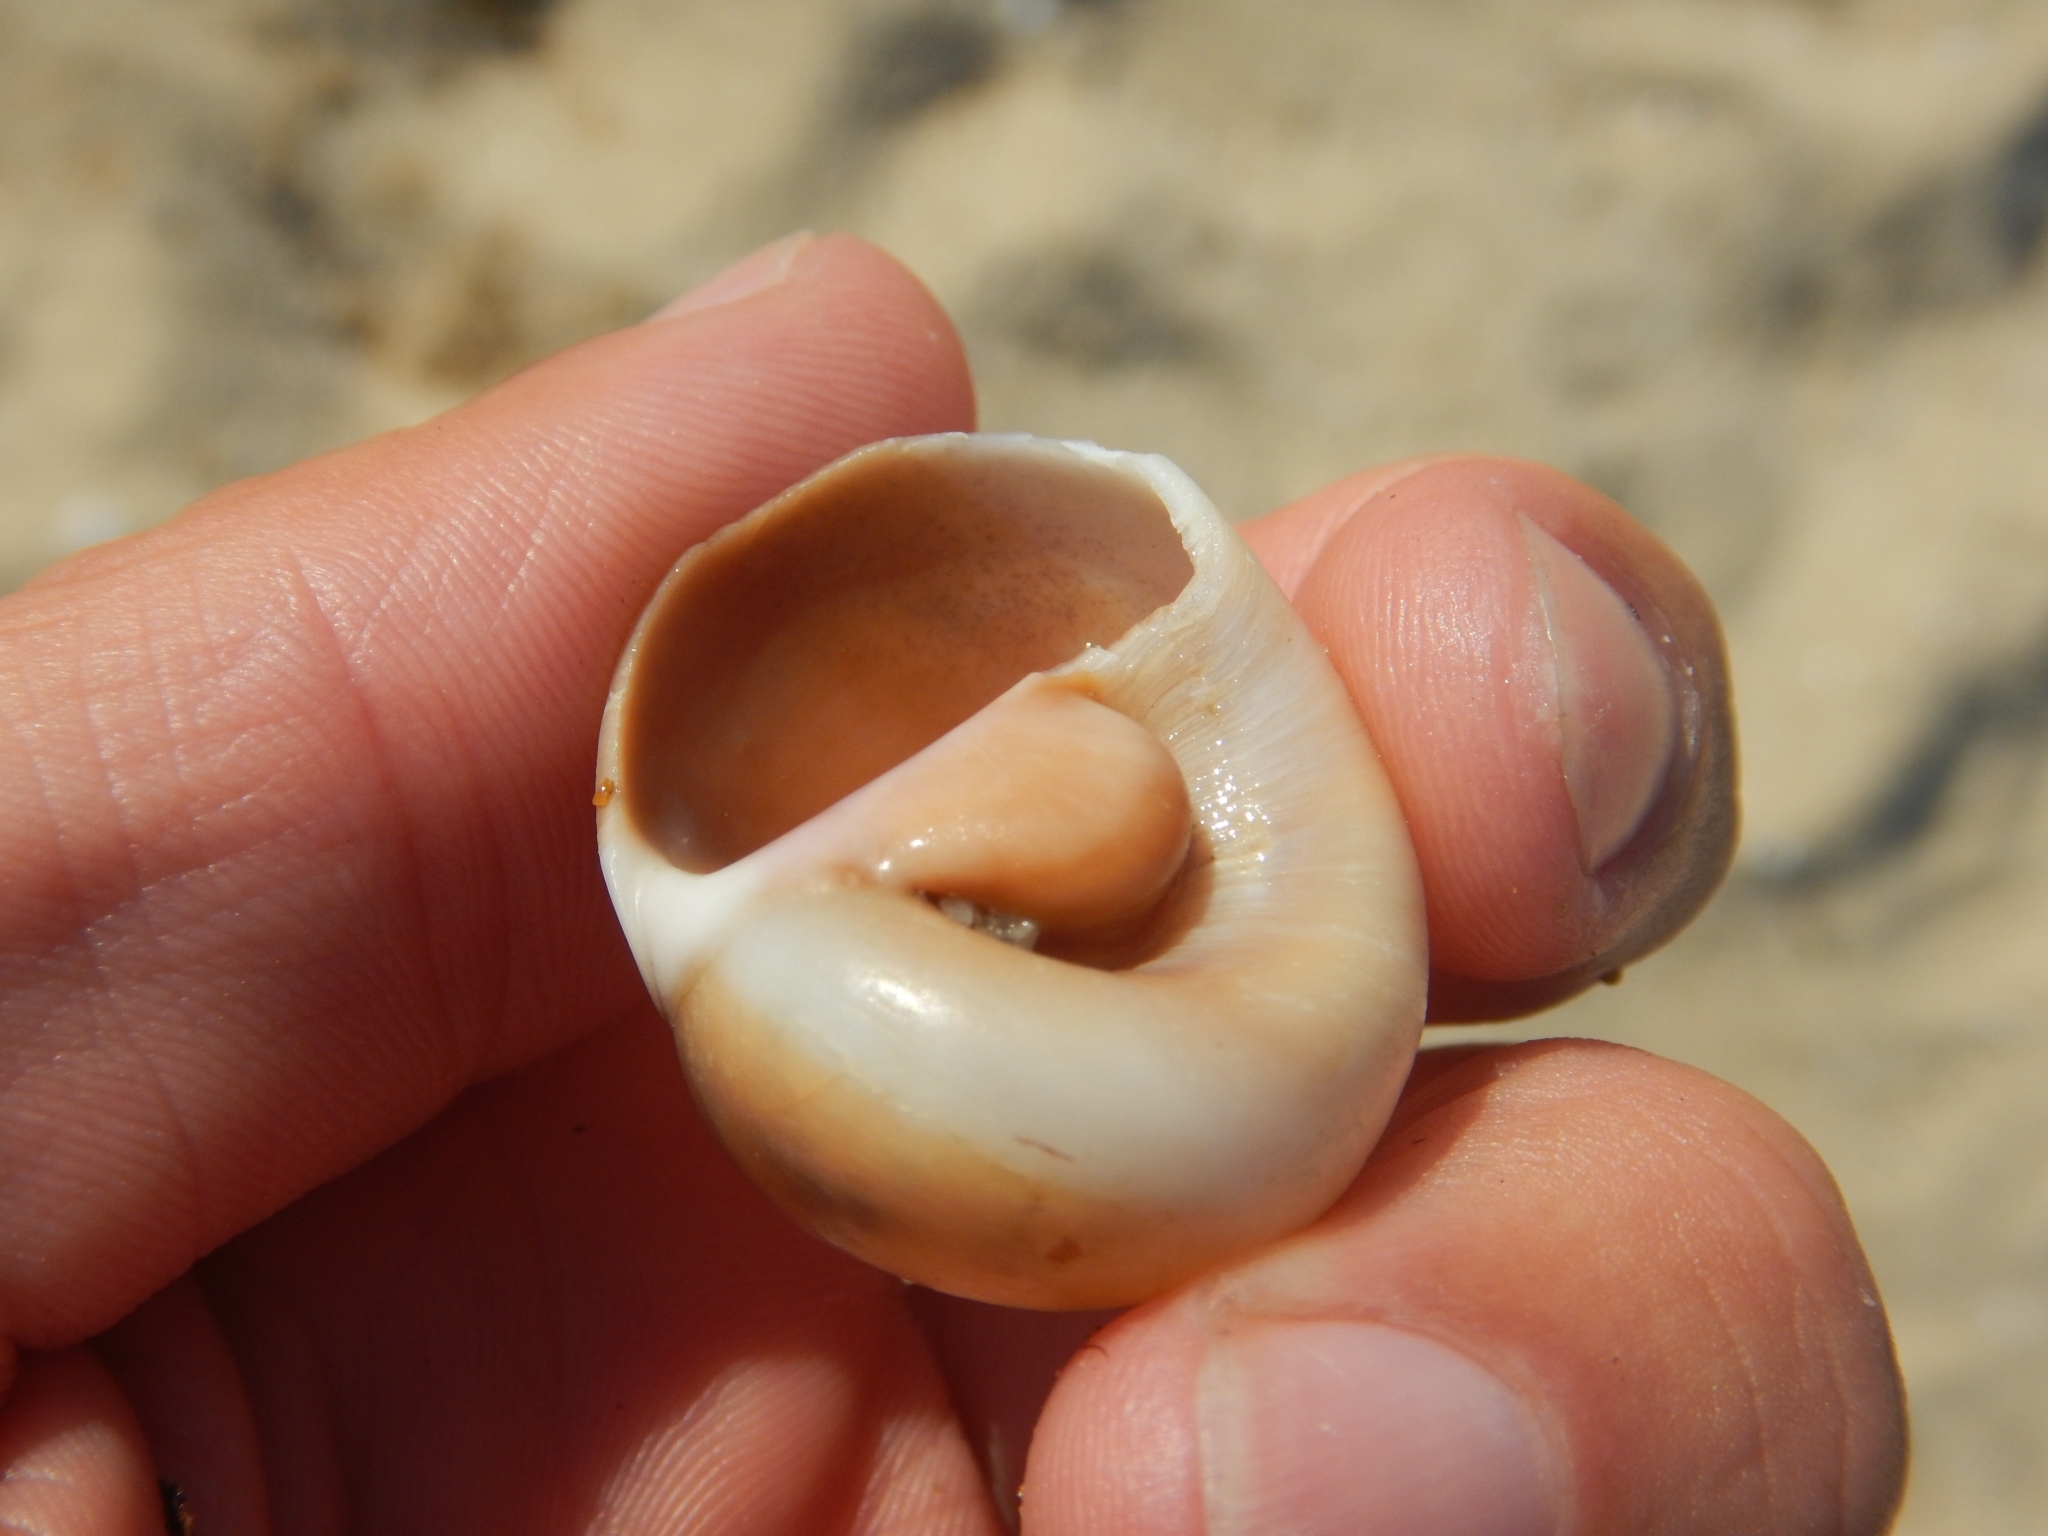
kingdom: Animalia
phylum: Mollusca
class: Gastropoda
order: Littorinimorpha
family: Naticidae
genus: Neverita
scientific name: Neverita josephinia
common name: Josephine's moonsnail
